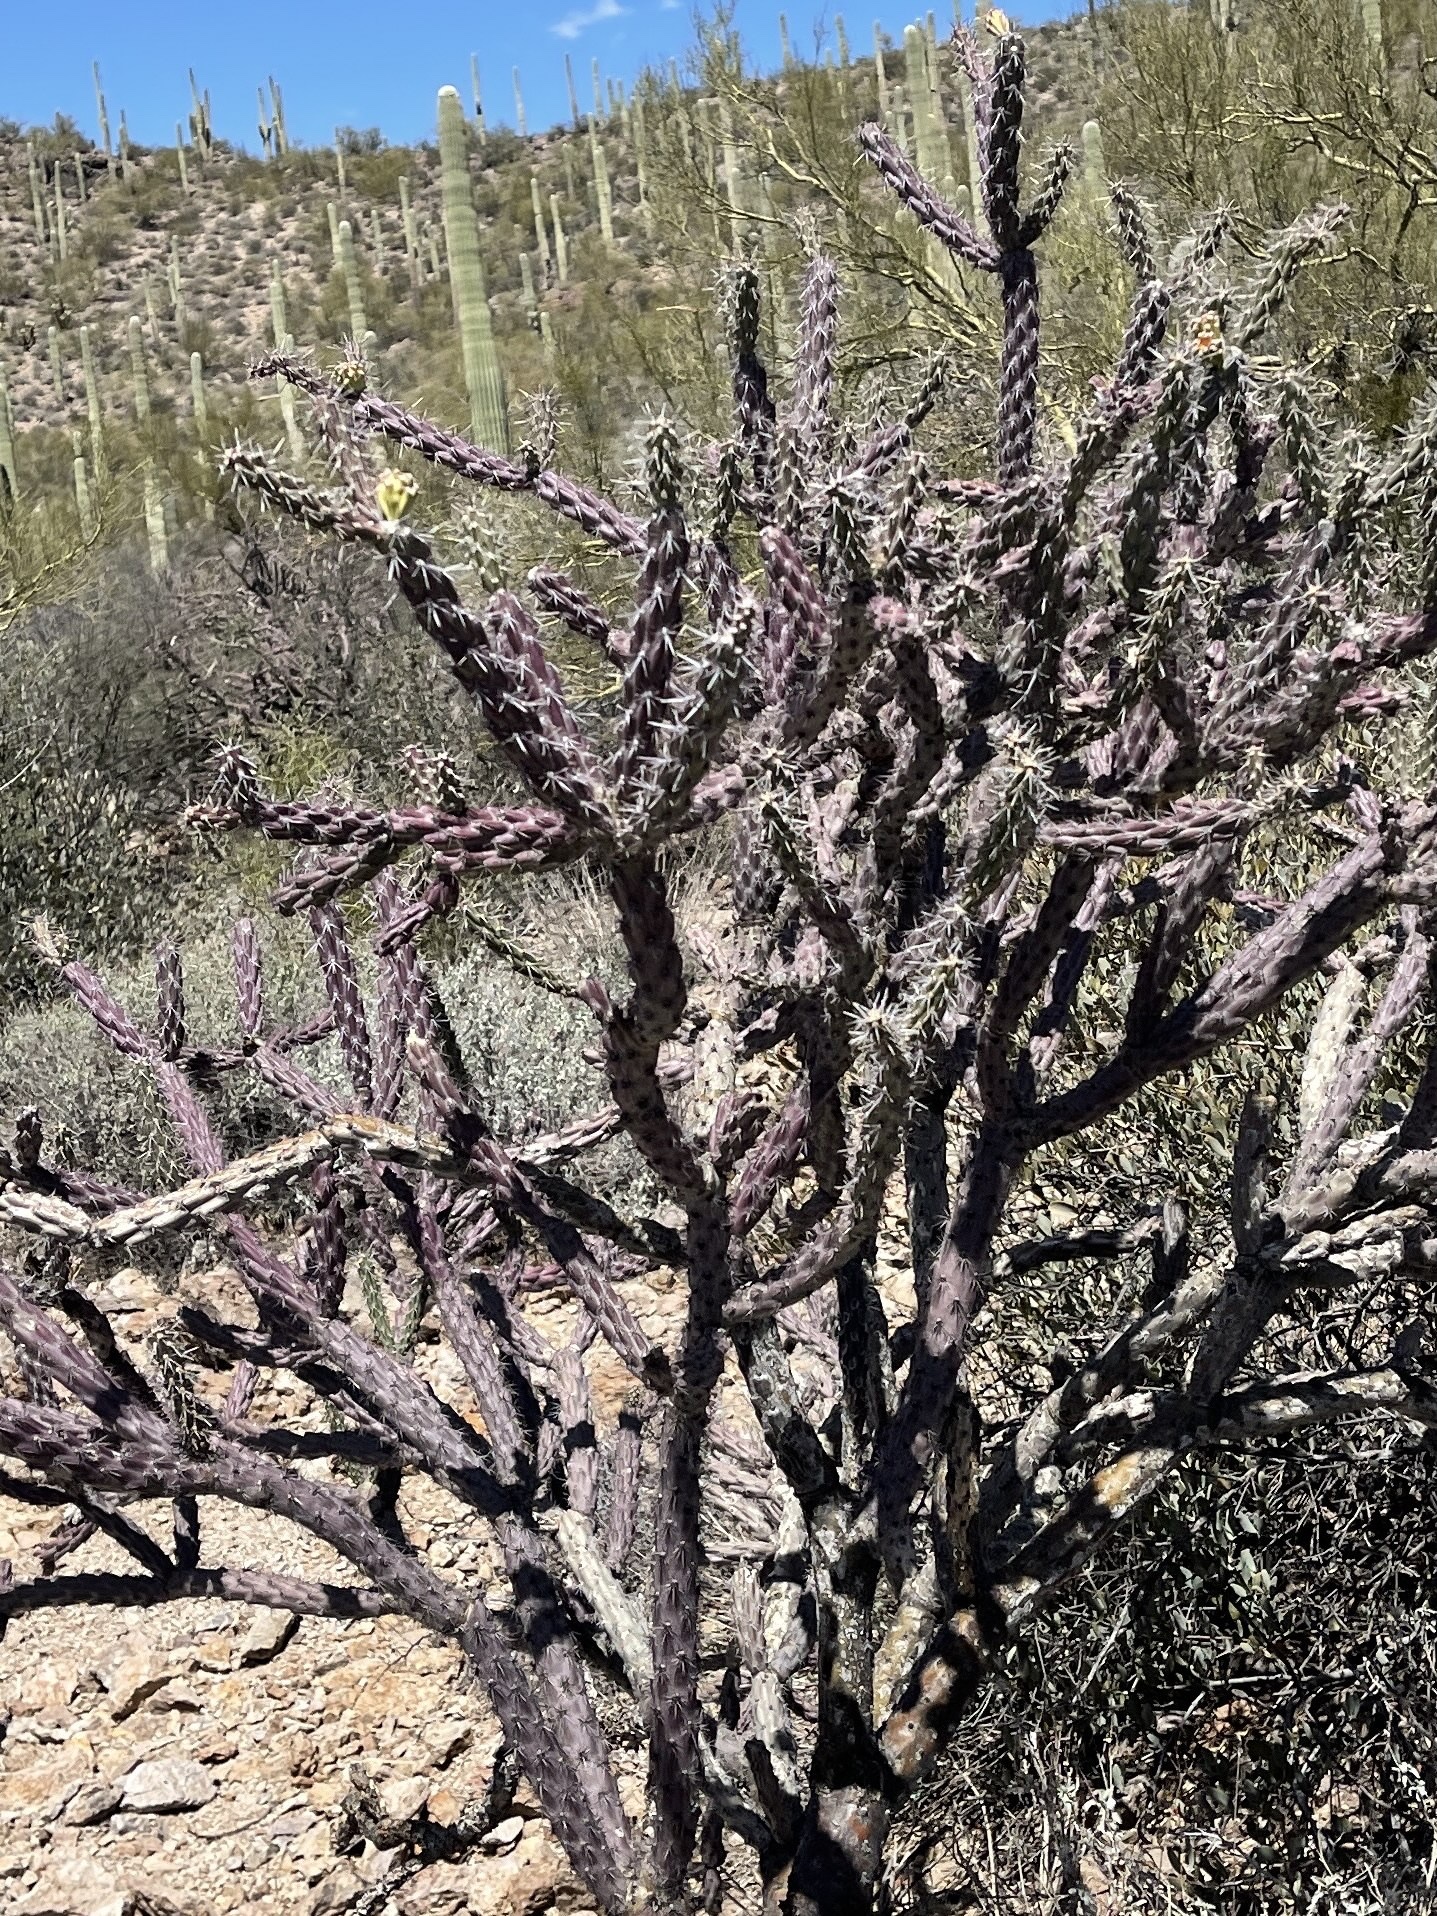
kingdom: Plantae
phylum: Tracheophyta
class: Magnoliopsida
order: Caryophyllales
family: Cactaceae
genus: Cylindropuntia
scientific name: Cylindropuntia imbricata
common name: Candelabrum cactus
